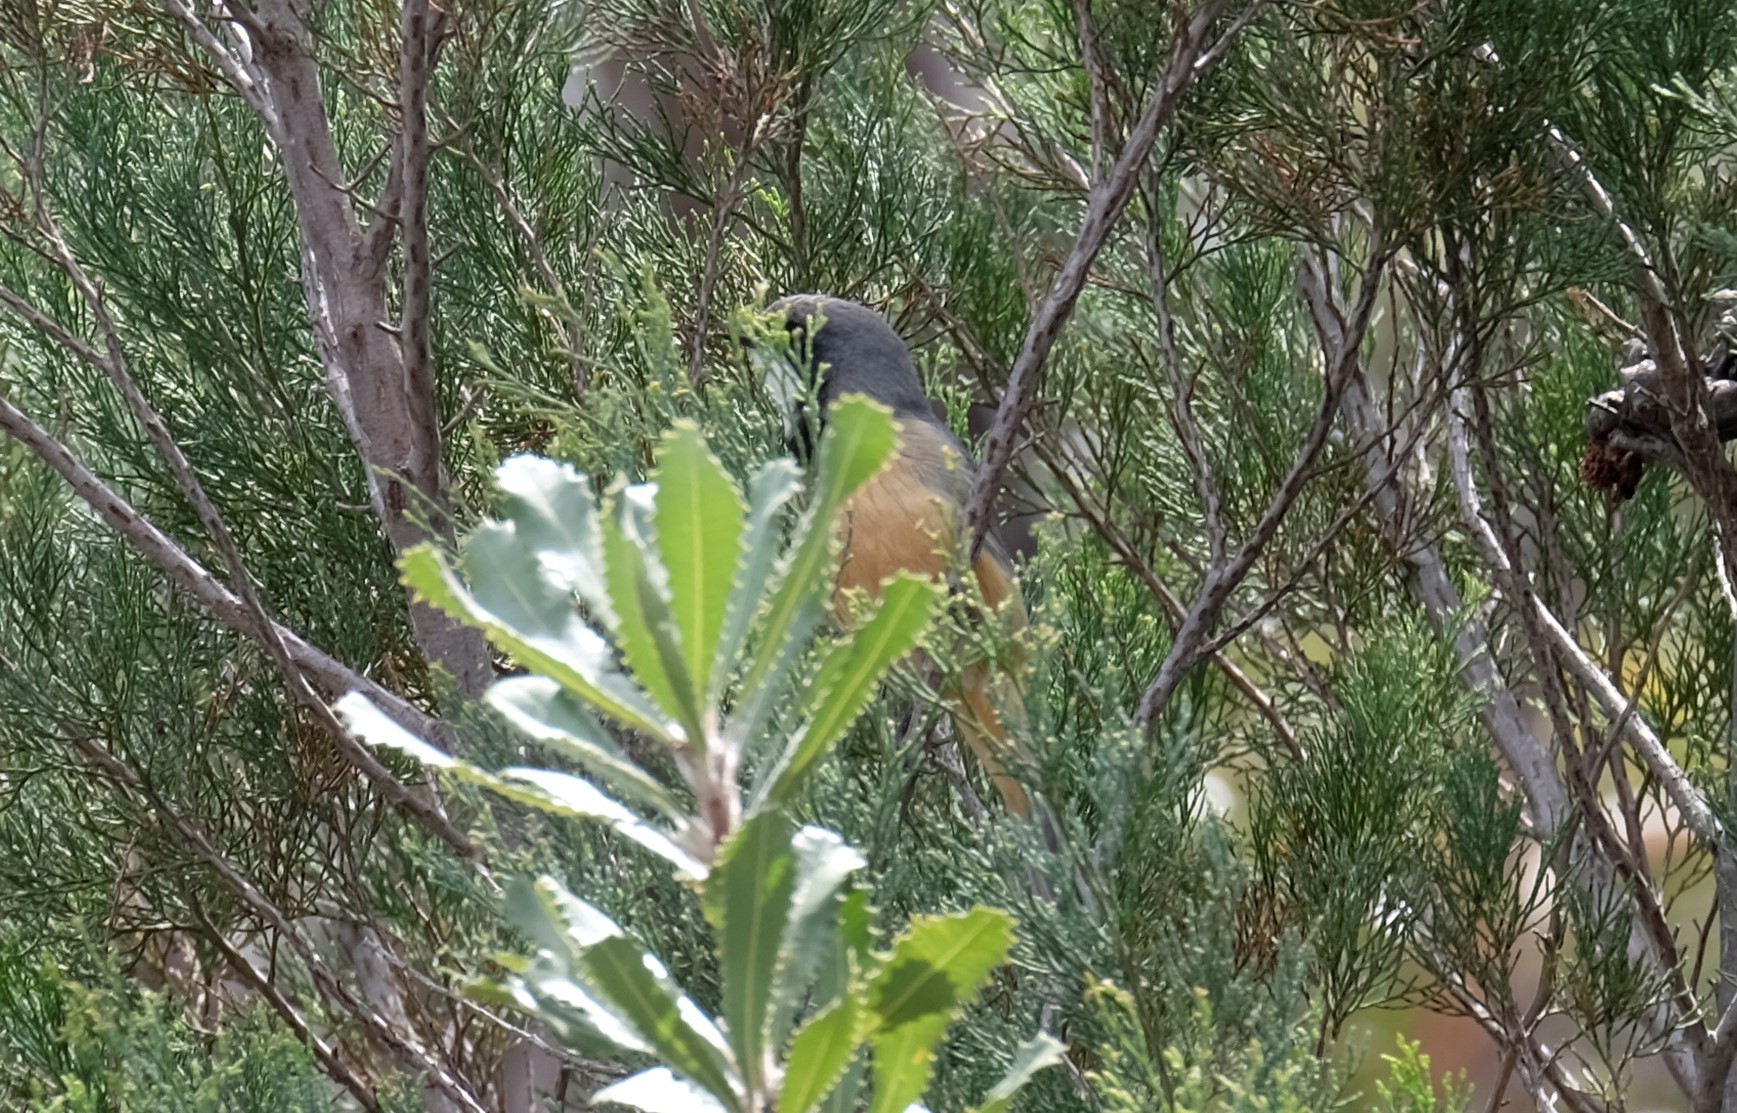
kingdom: Animalia
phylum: Chordata
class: Aves
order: Passeriformes
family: Pachycephalidae
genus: Pachycephala
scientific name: Pachycephala rufiventris
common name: Rufous whistler
